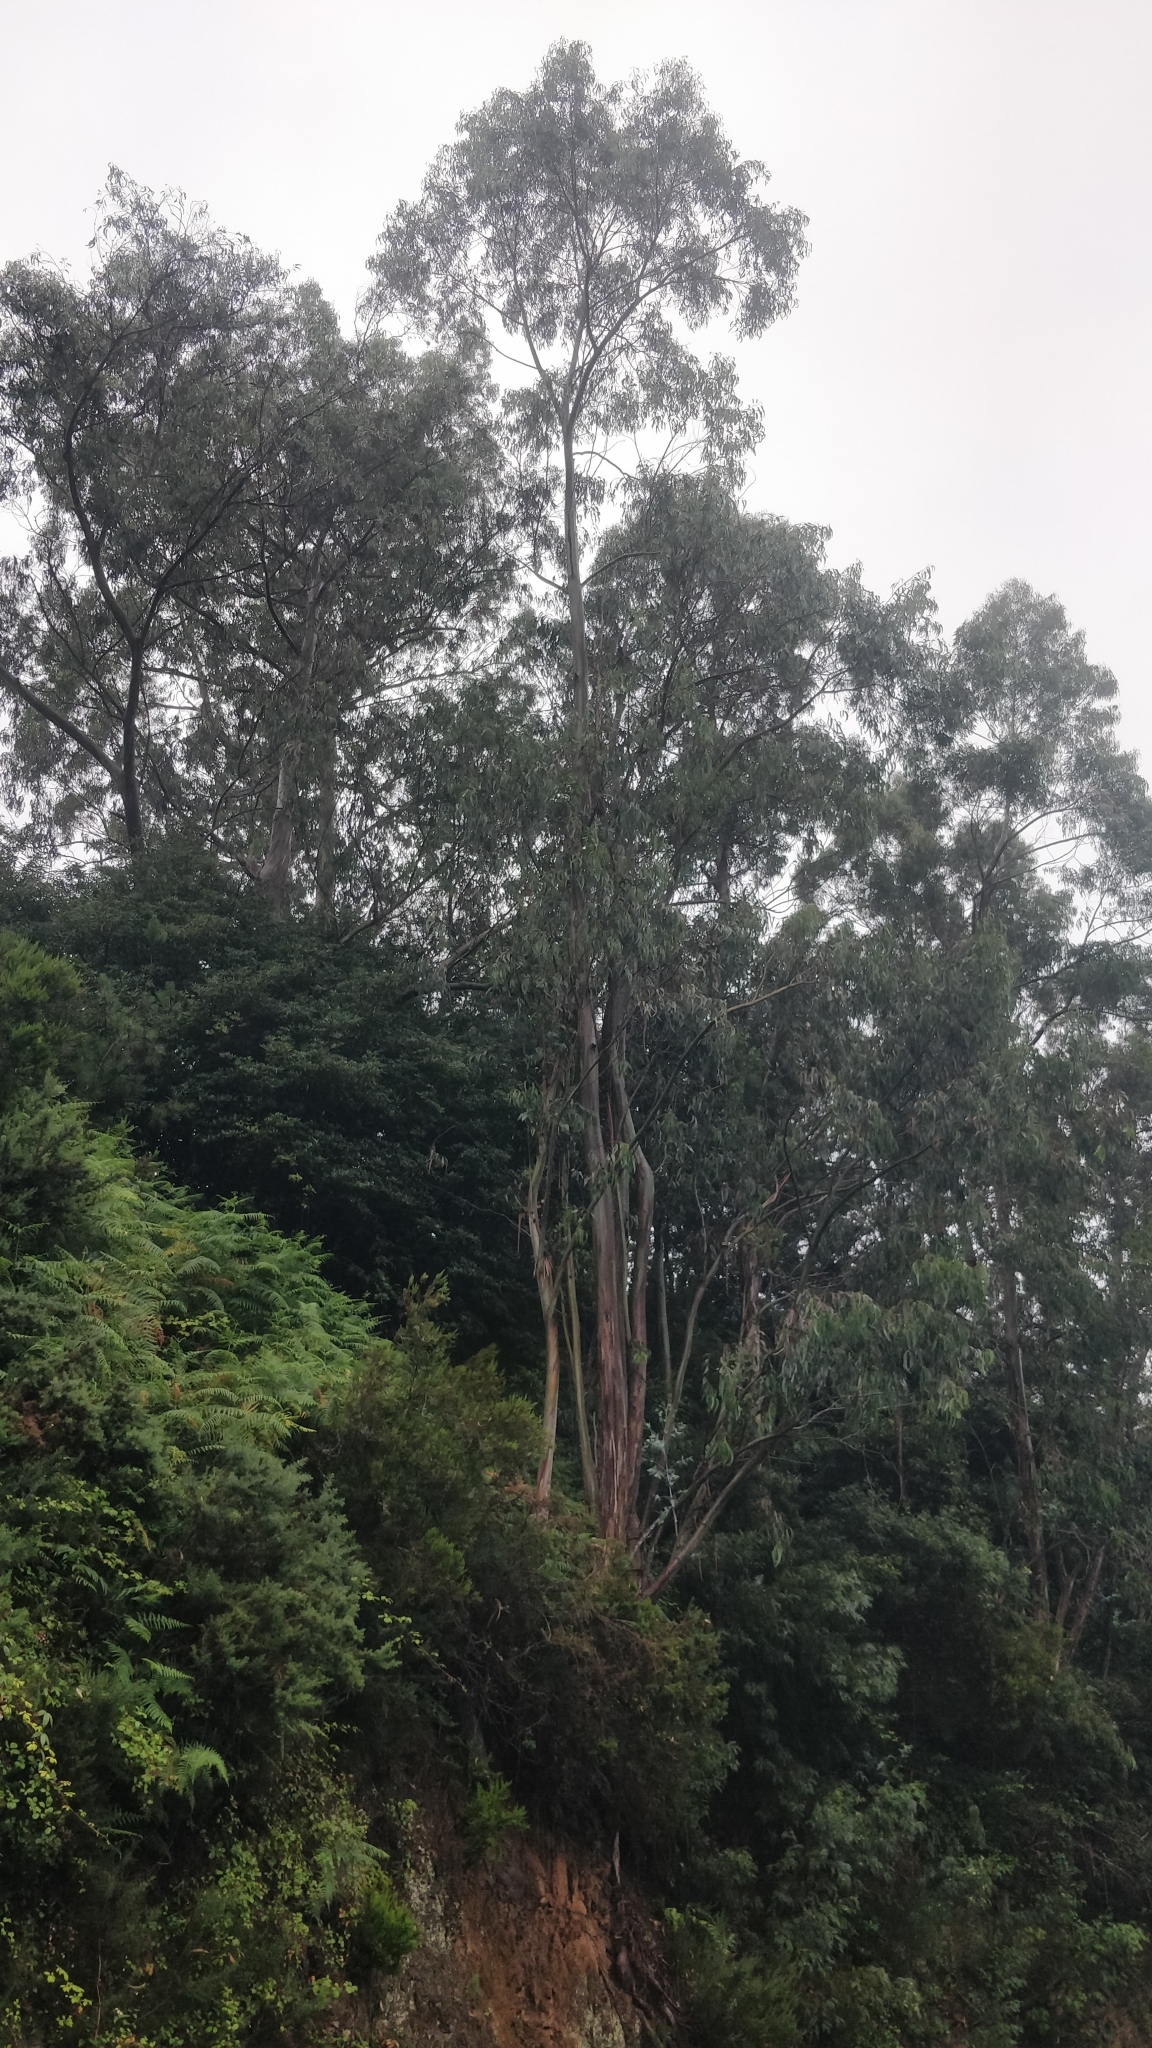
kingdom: Plantae
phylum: Tracheophyta
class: Magnoliopsida
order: Myrtales
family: Myrtaceae
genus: Eucalyptus
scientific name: Eucalyptus globulus
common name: Southern blue-gum
